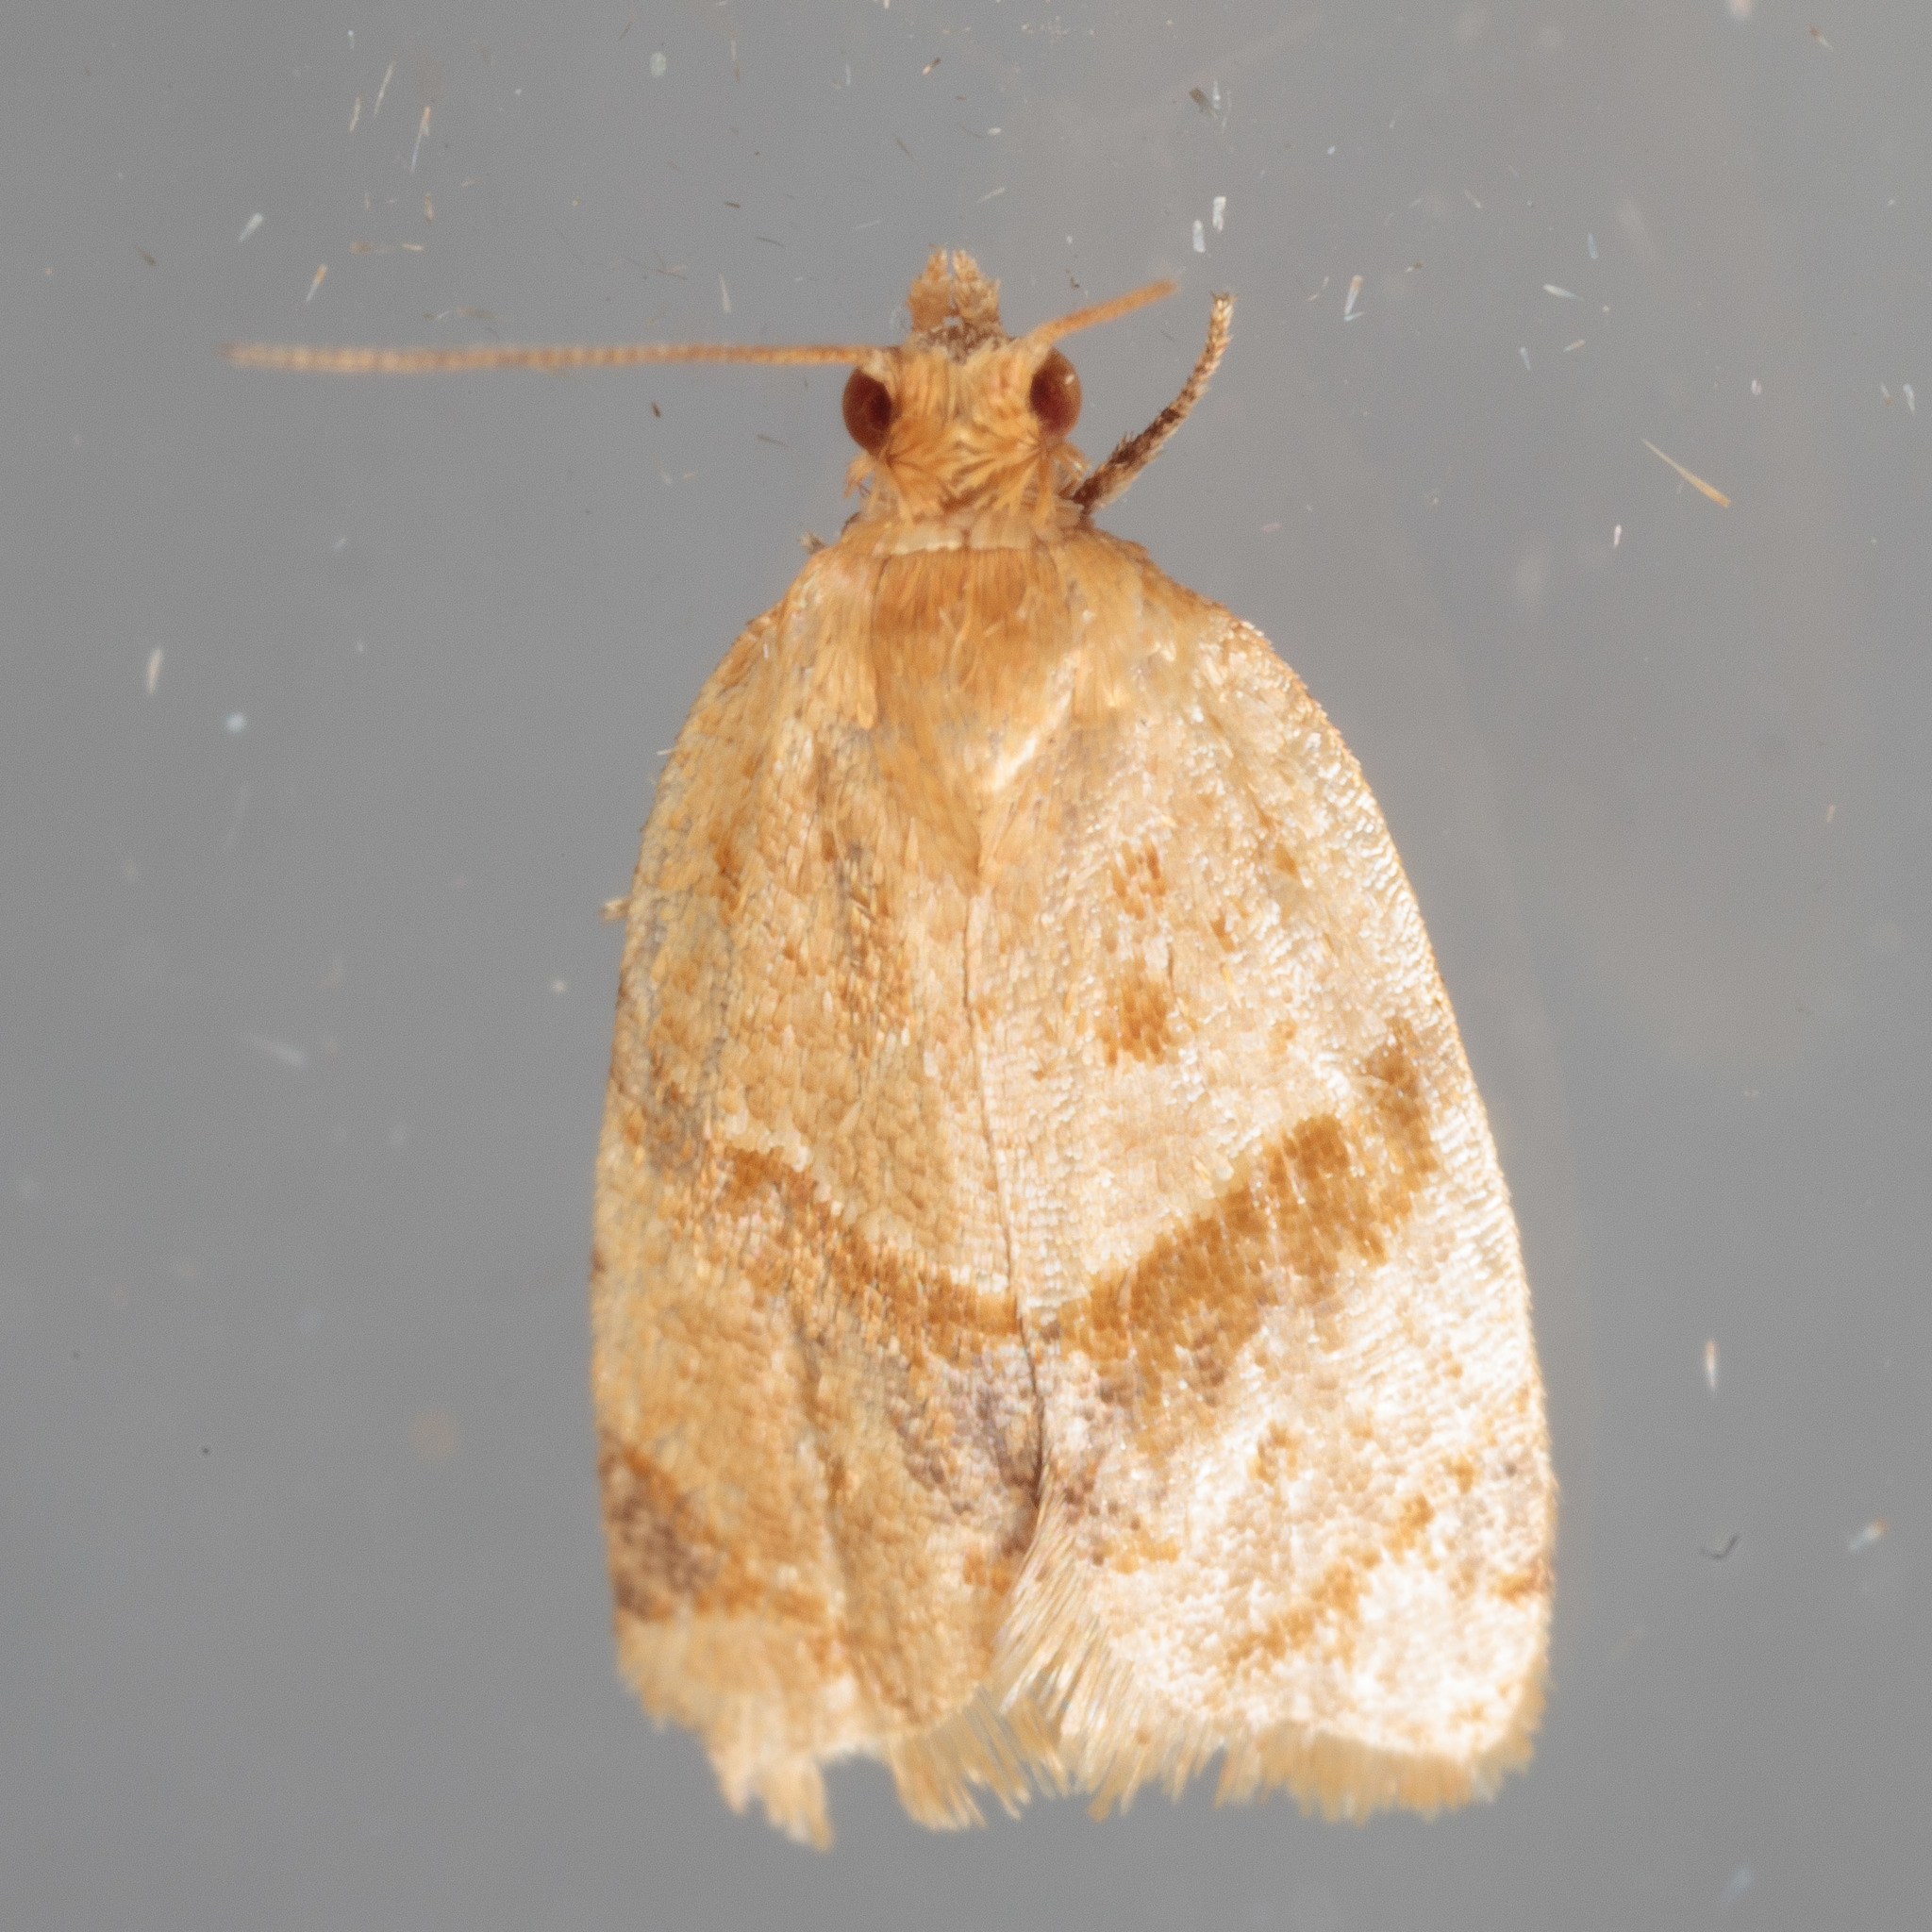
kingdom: Animalia
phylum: Arthropoda
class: Insecta
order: Lepidoptera
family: Tortricidae
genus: Clepsis
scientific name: Clepsis peritana
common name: Garden tortrix
